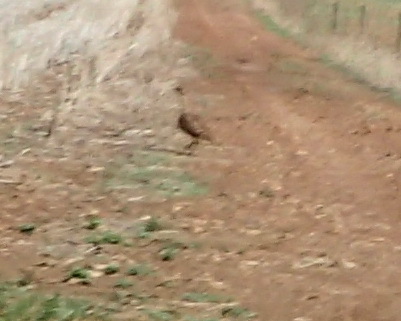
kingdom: Animalia
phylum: Chordata
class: Aves
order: Otidiformes
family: Otididae
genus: Eupodotis
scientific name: Eupodotis vigorsii
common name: Karoo korhaan
